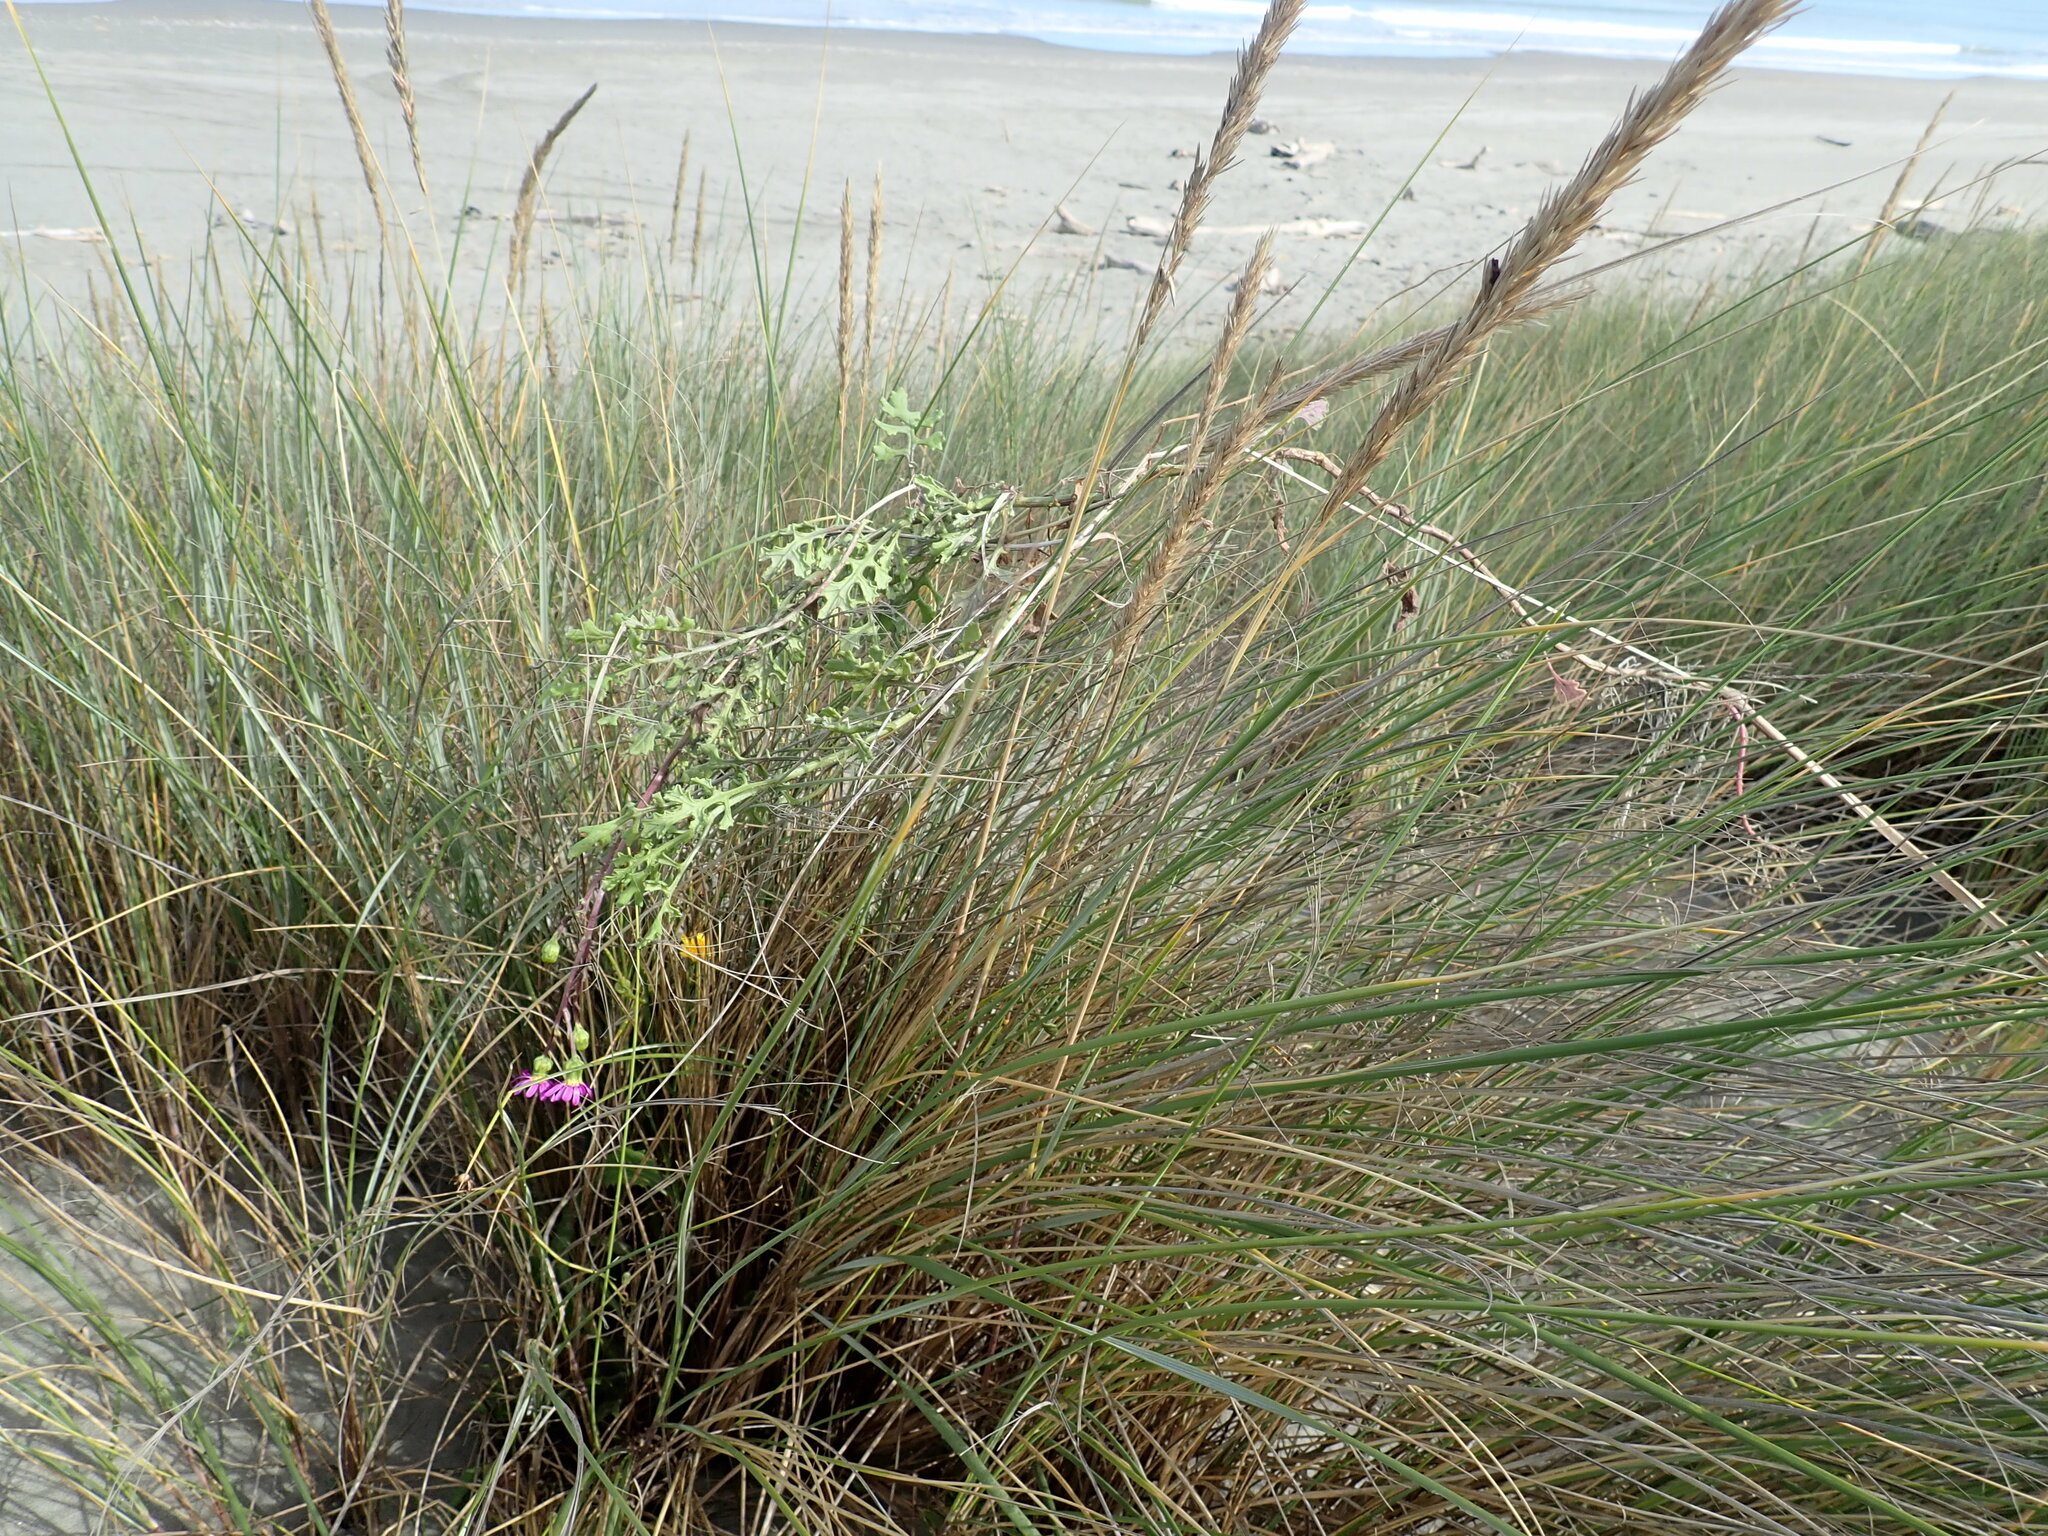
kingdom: Plantae
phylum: Tracheophyta
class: Magnoliopsida
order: Asterales
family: Asteraceae
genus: Senecio
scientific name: Senecio elegans
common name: Purple groundsel
